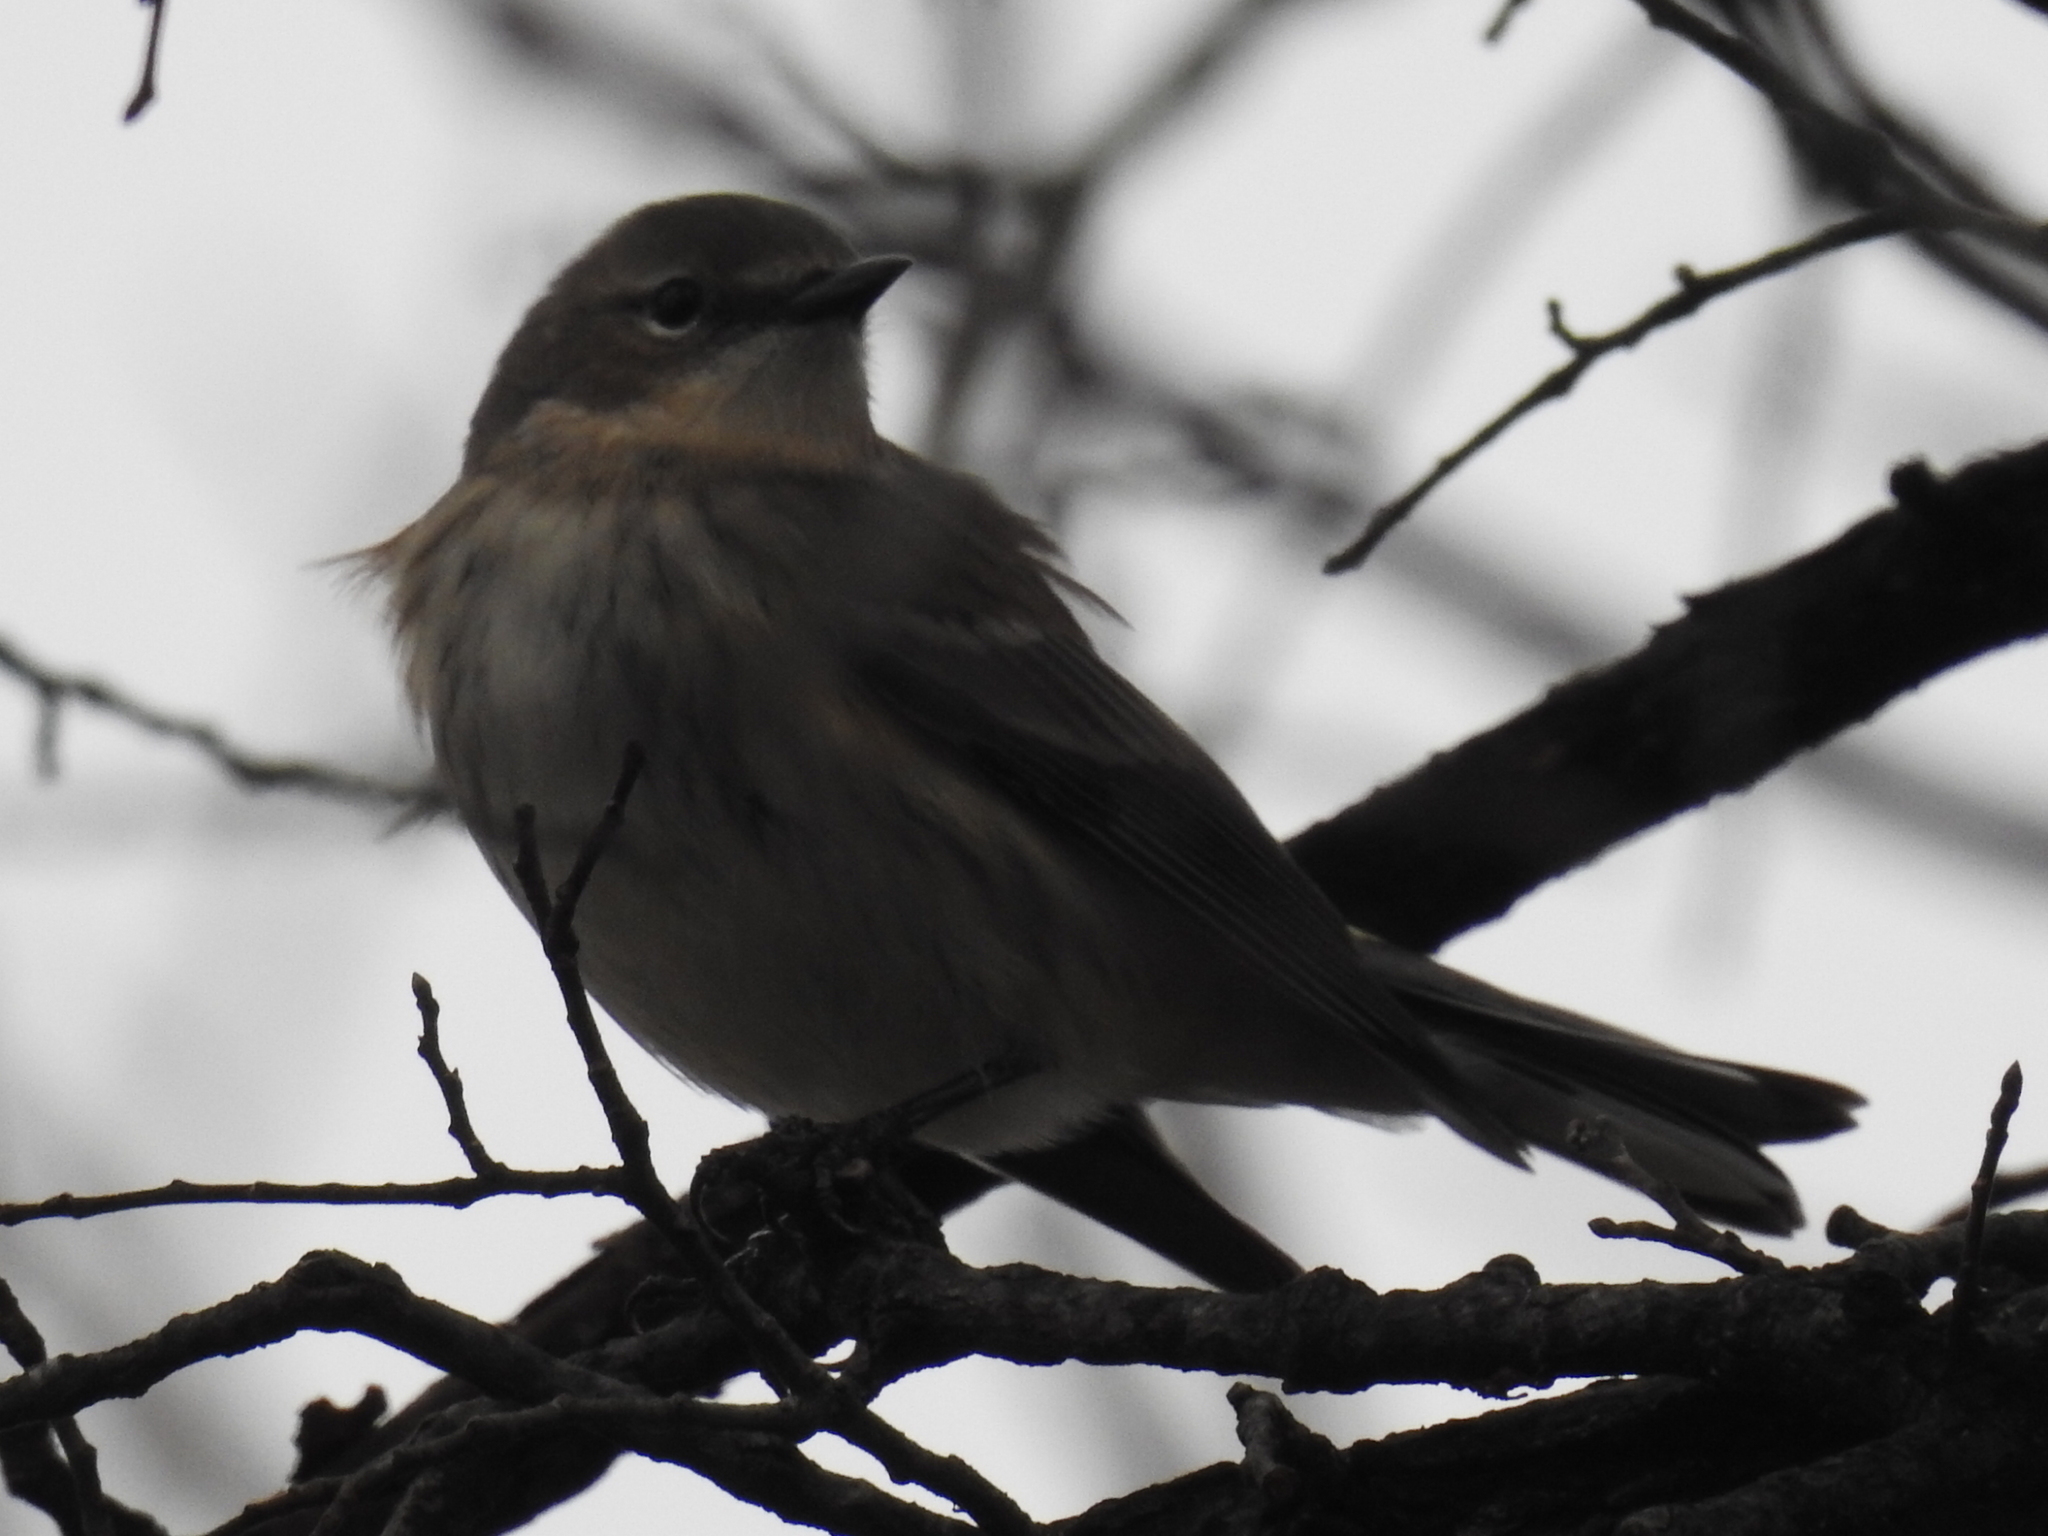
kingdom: Animalia
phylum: Chordata
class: Aves
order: Passeriformes
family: Parulidae
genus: Setophaga
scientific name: Setophaga coronata
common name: Myrtle warbler
